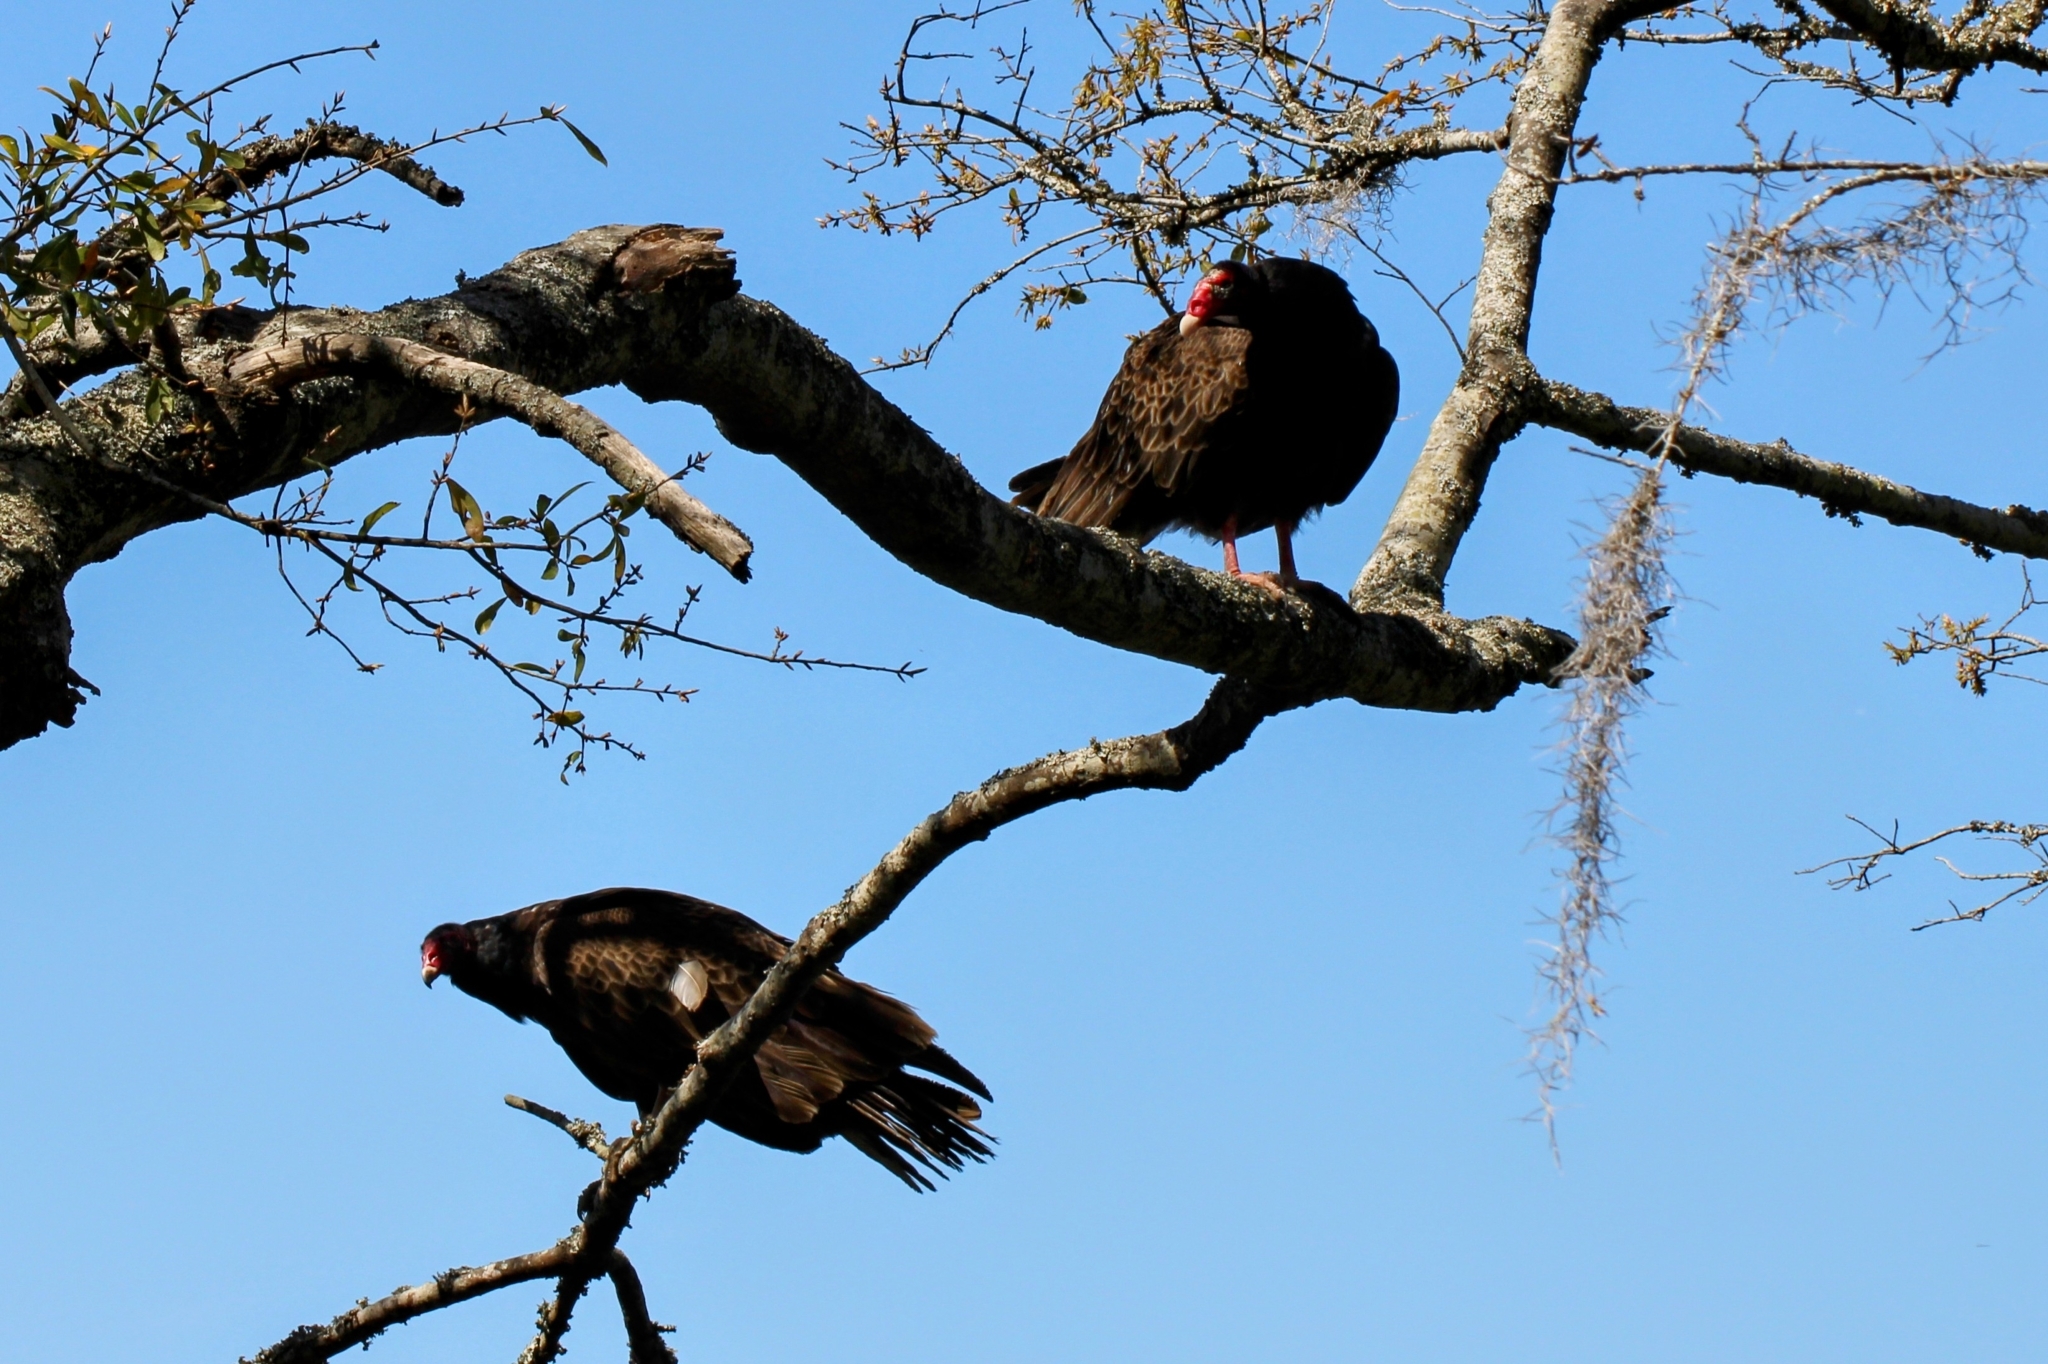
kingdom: Animalia
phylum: Chordata
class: Aves
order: Accipitriformes
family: Cathartidae
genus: Cathartes
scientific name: Cathartes aura
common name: Turkey vulture
